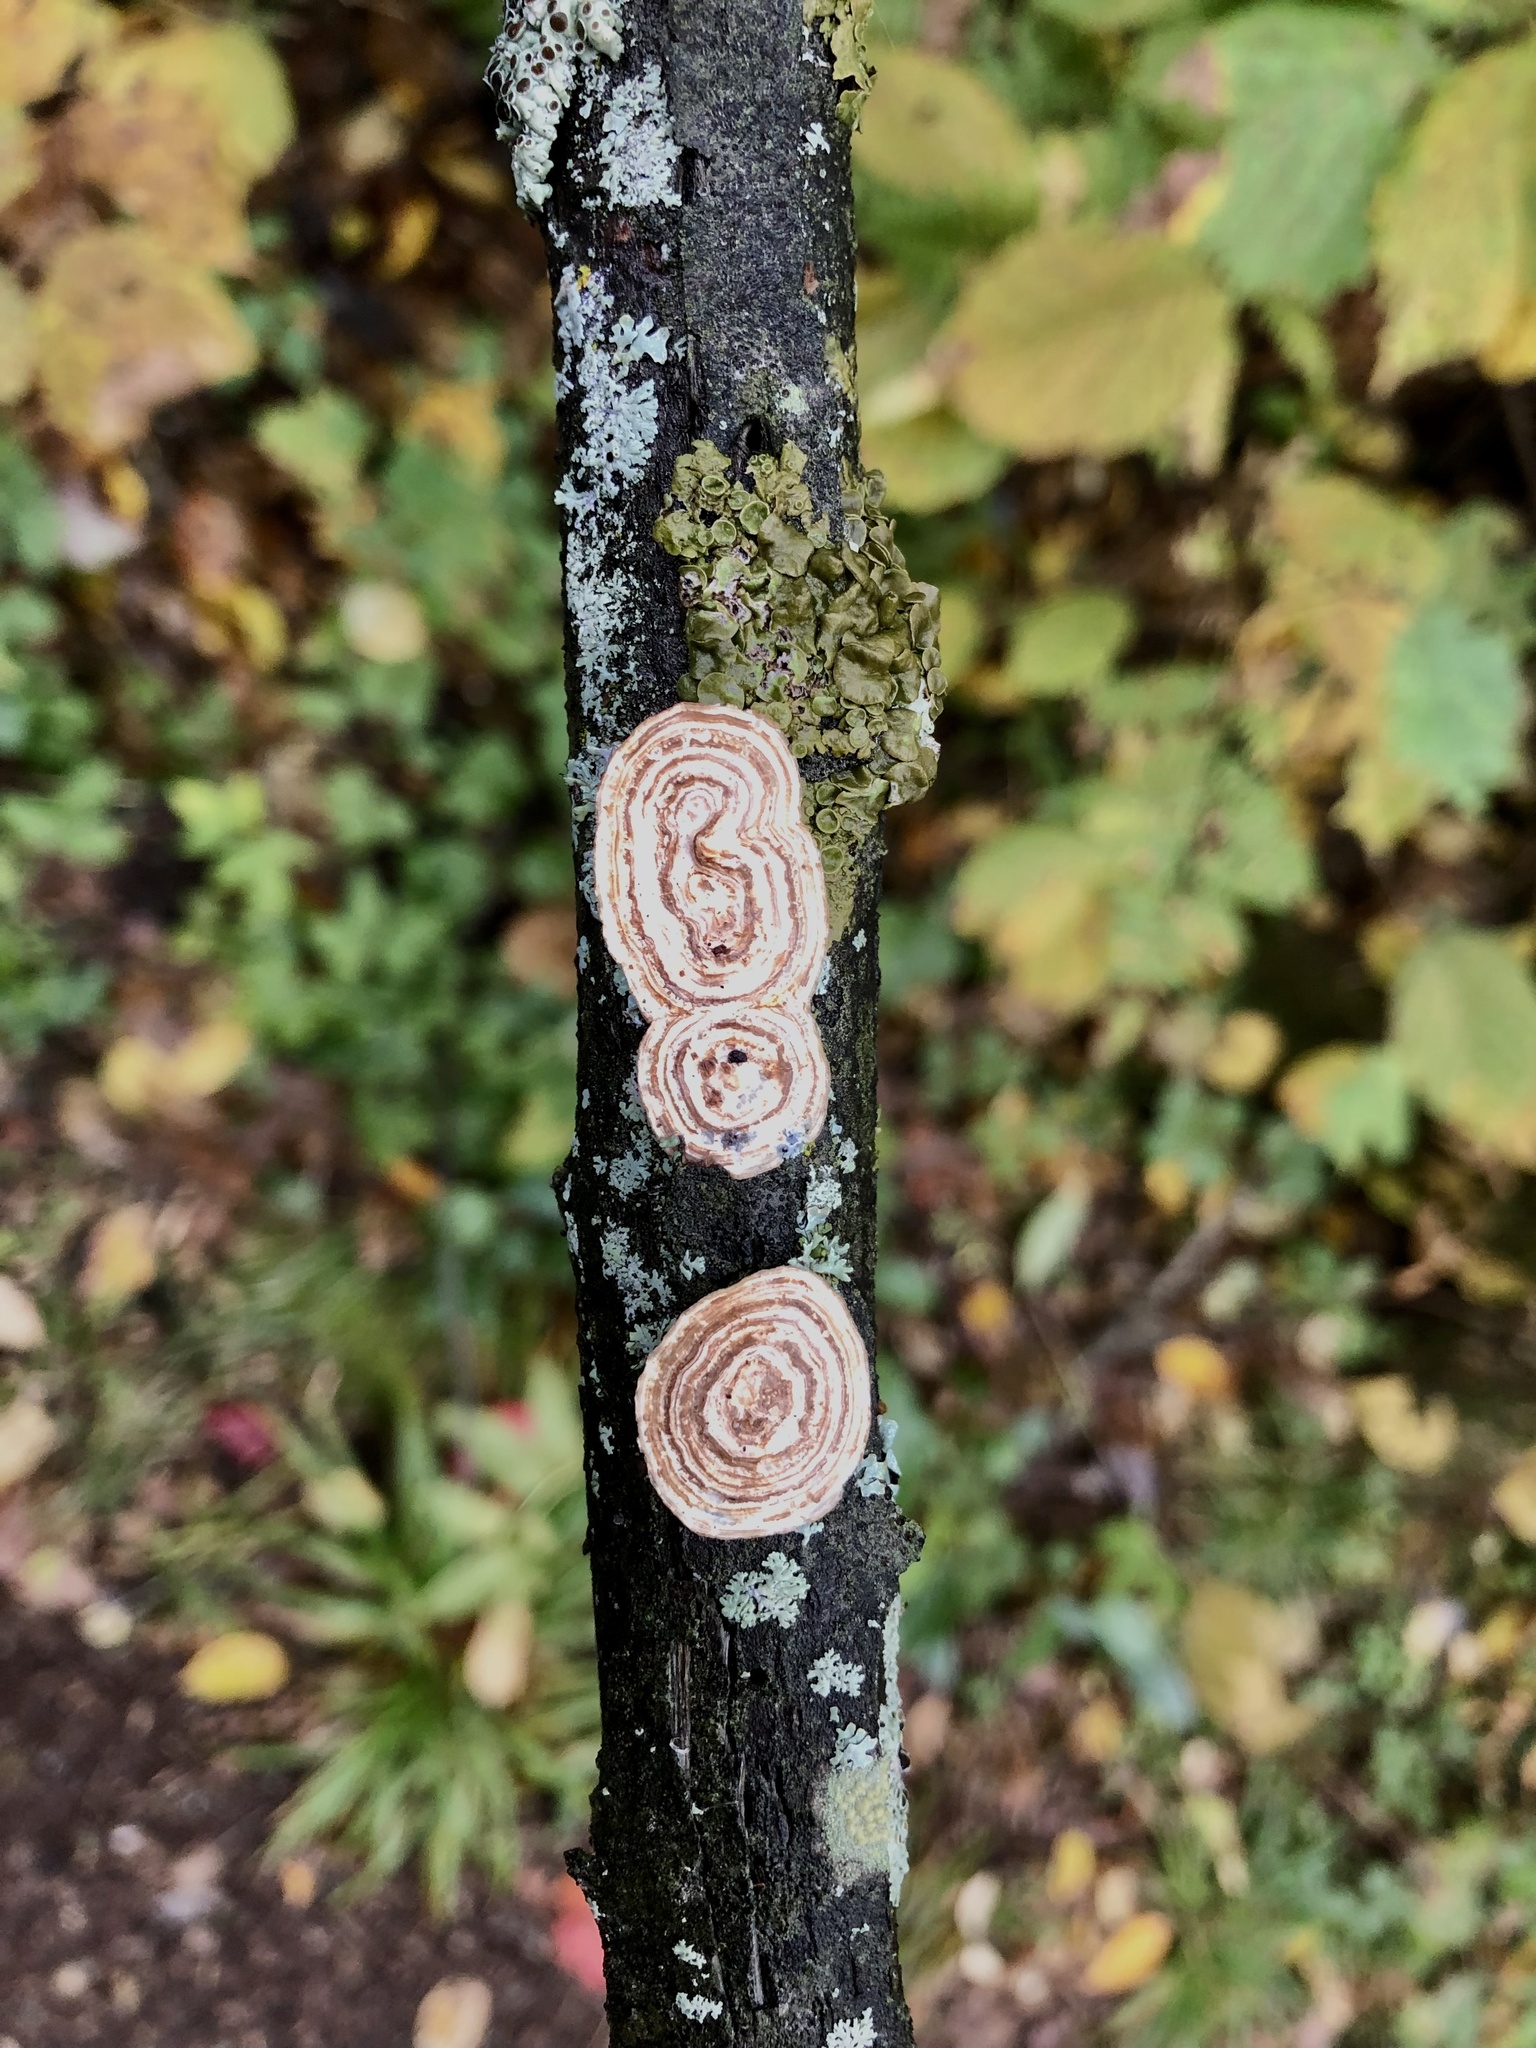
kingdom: Fungi
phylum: Basidiomycota
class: Agaricomycetes
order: Polyporales
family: Polyporaceae
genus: Poronidulus
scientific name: Poronidulus conchifer
